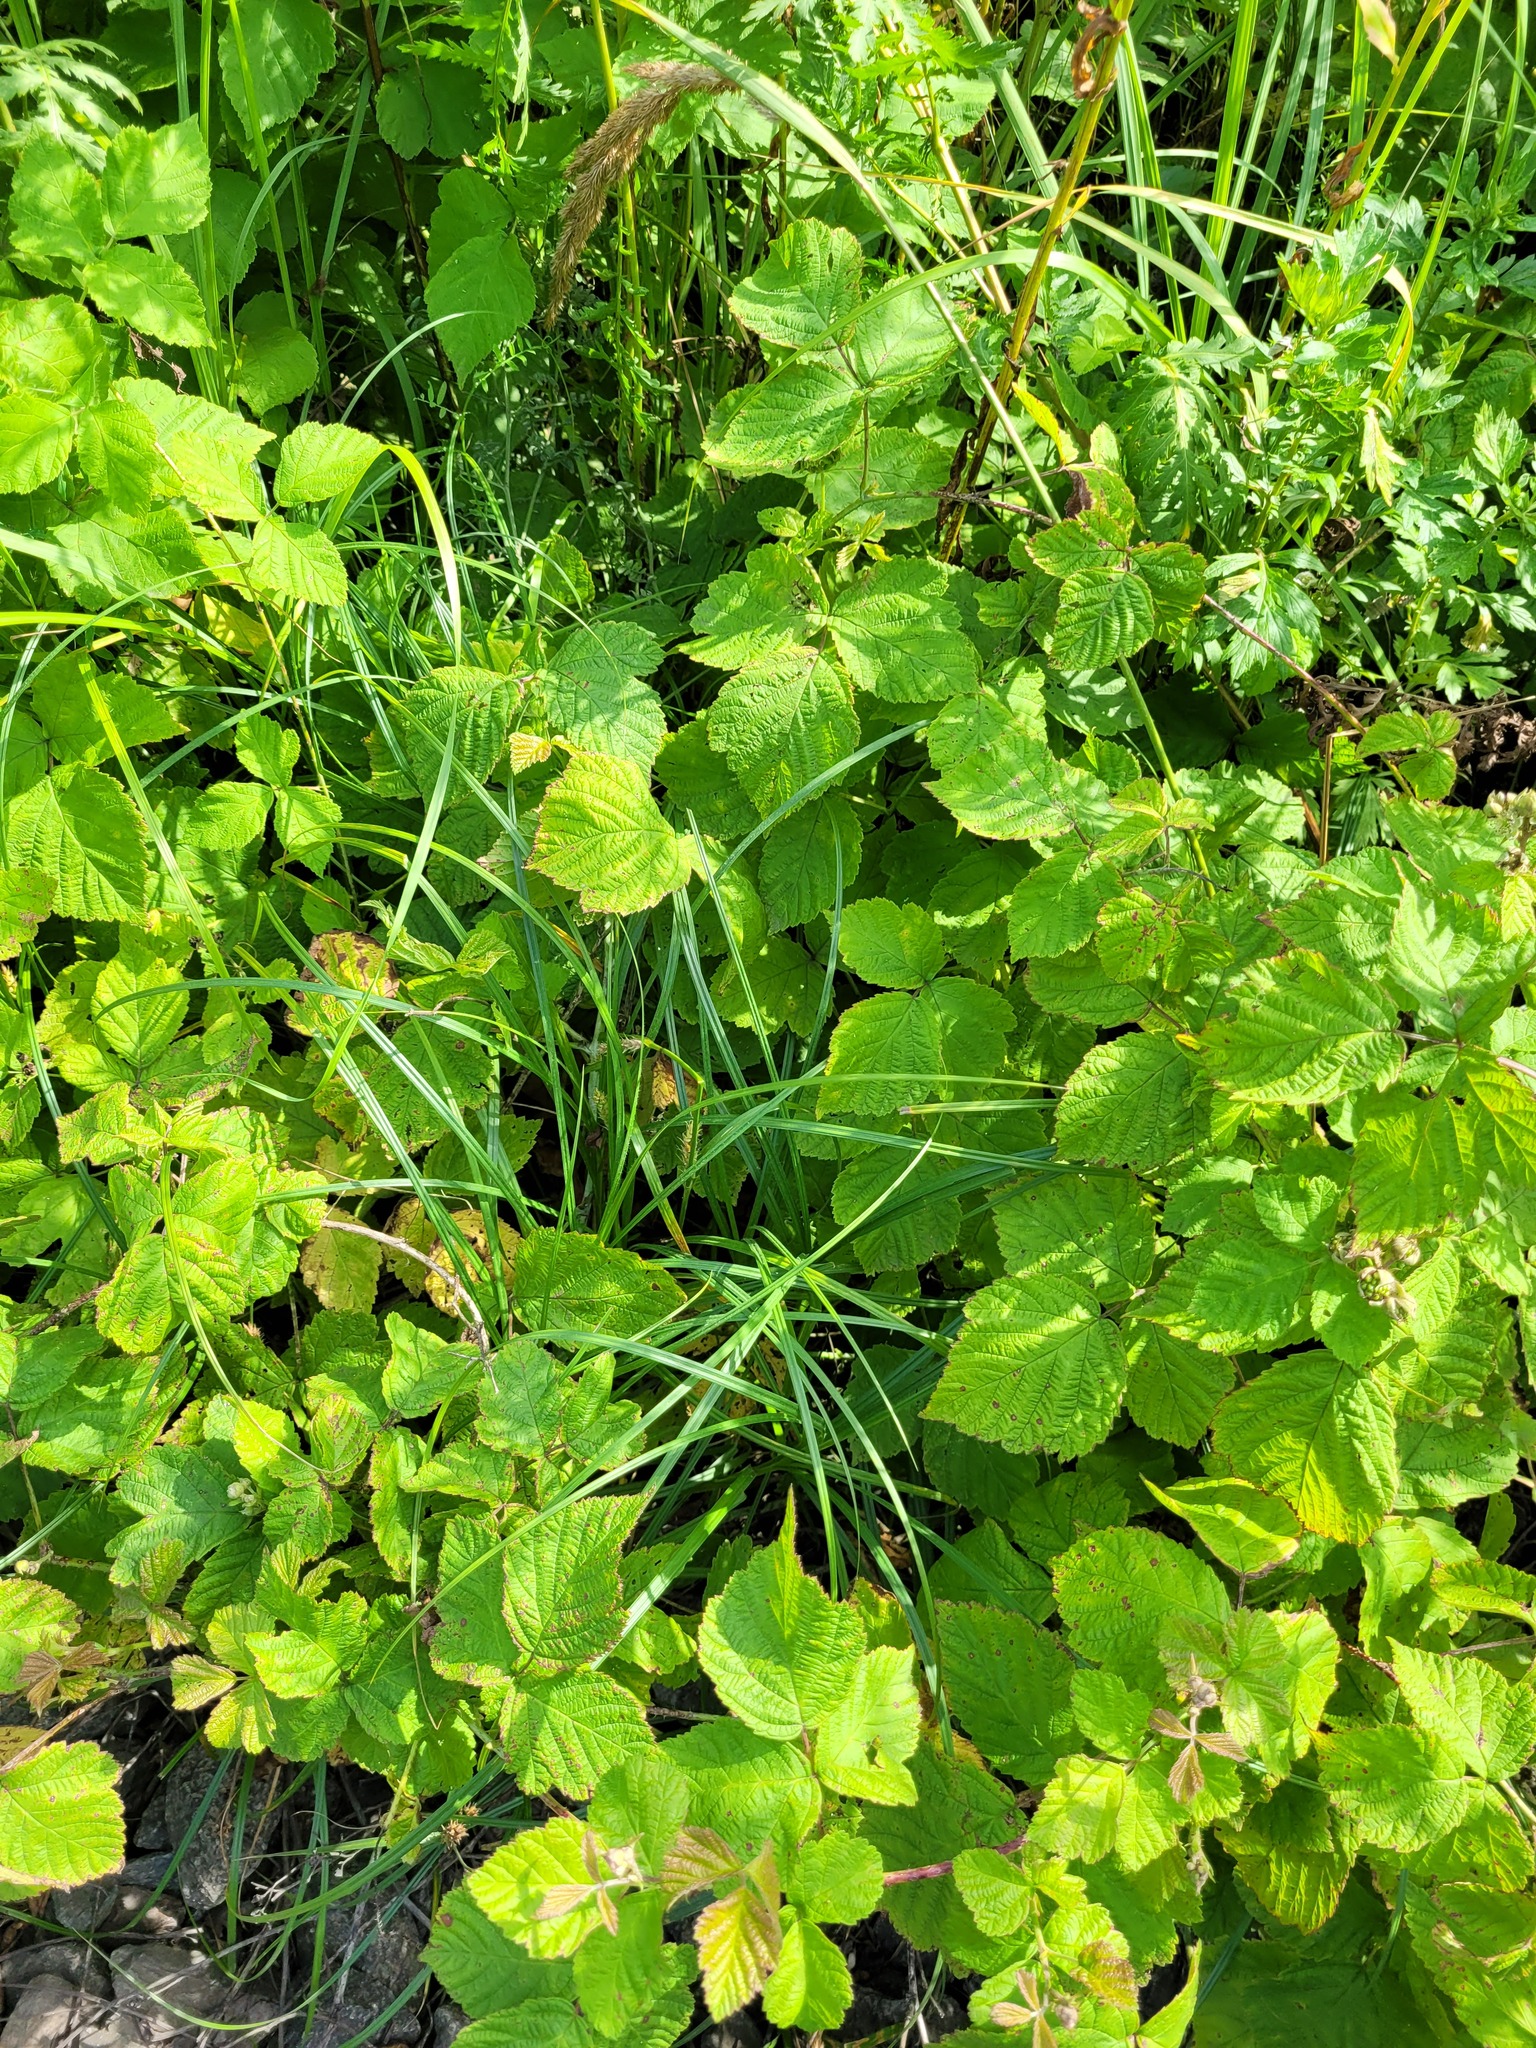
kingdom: Plantae
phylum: Tracheophyta
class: Liliopsida
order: Poales
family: Cyperaceae
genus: Carex
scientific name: Carex hirta
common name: Hairy sedge
